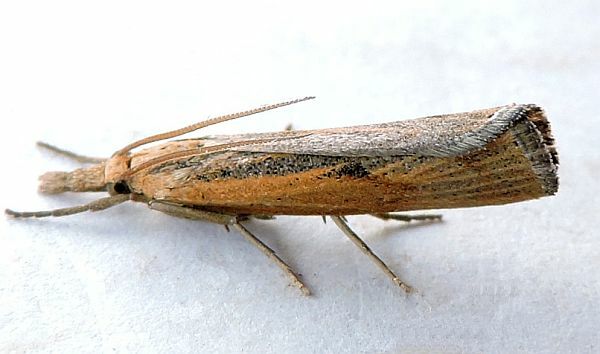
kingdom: Animalia
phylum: Arthropoda
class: Insecta
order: Lepidoptera
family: Crambidae
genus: Pediasia
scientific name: Pediasia trisecta
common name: Sod webworm moth
